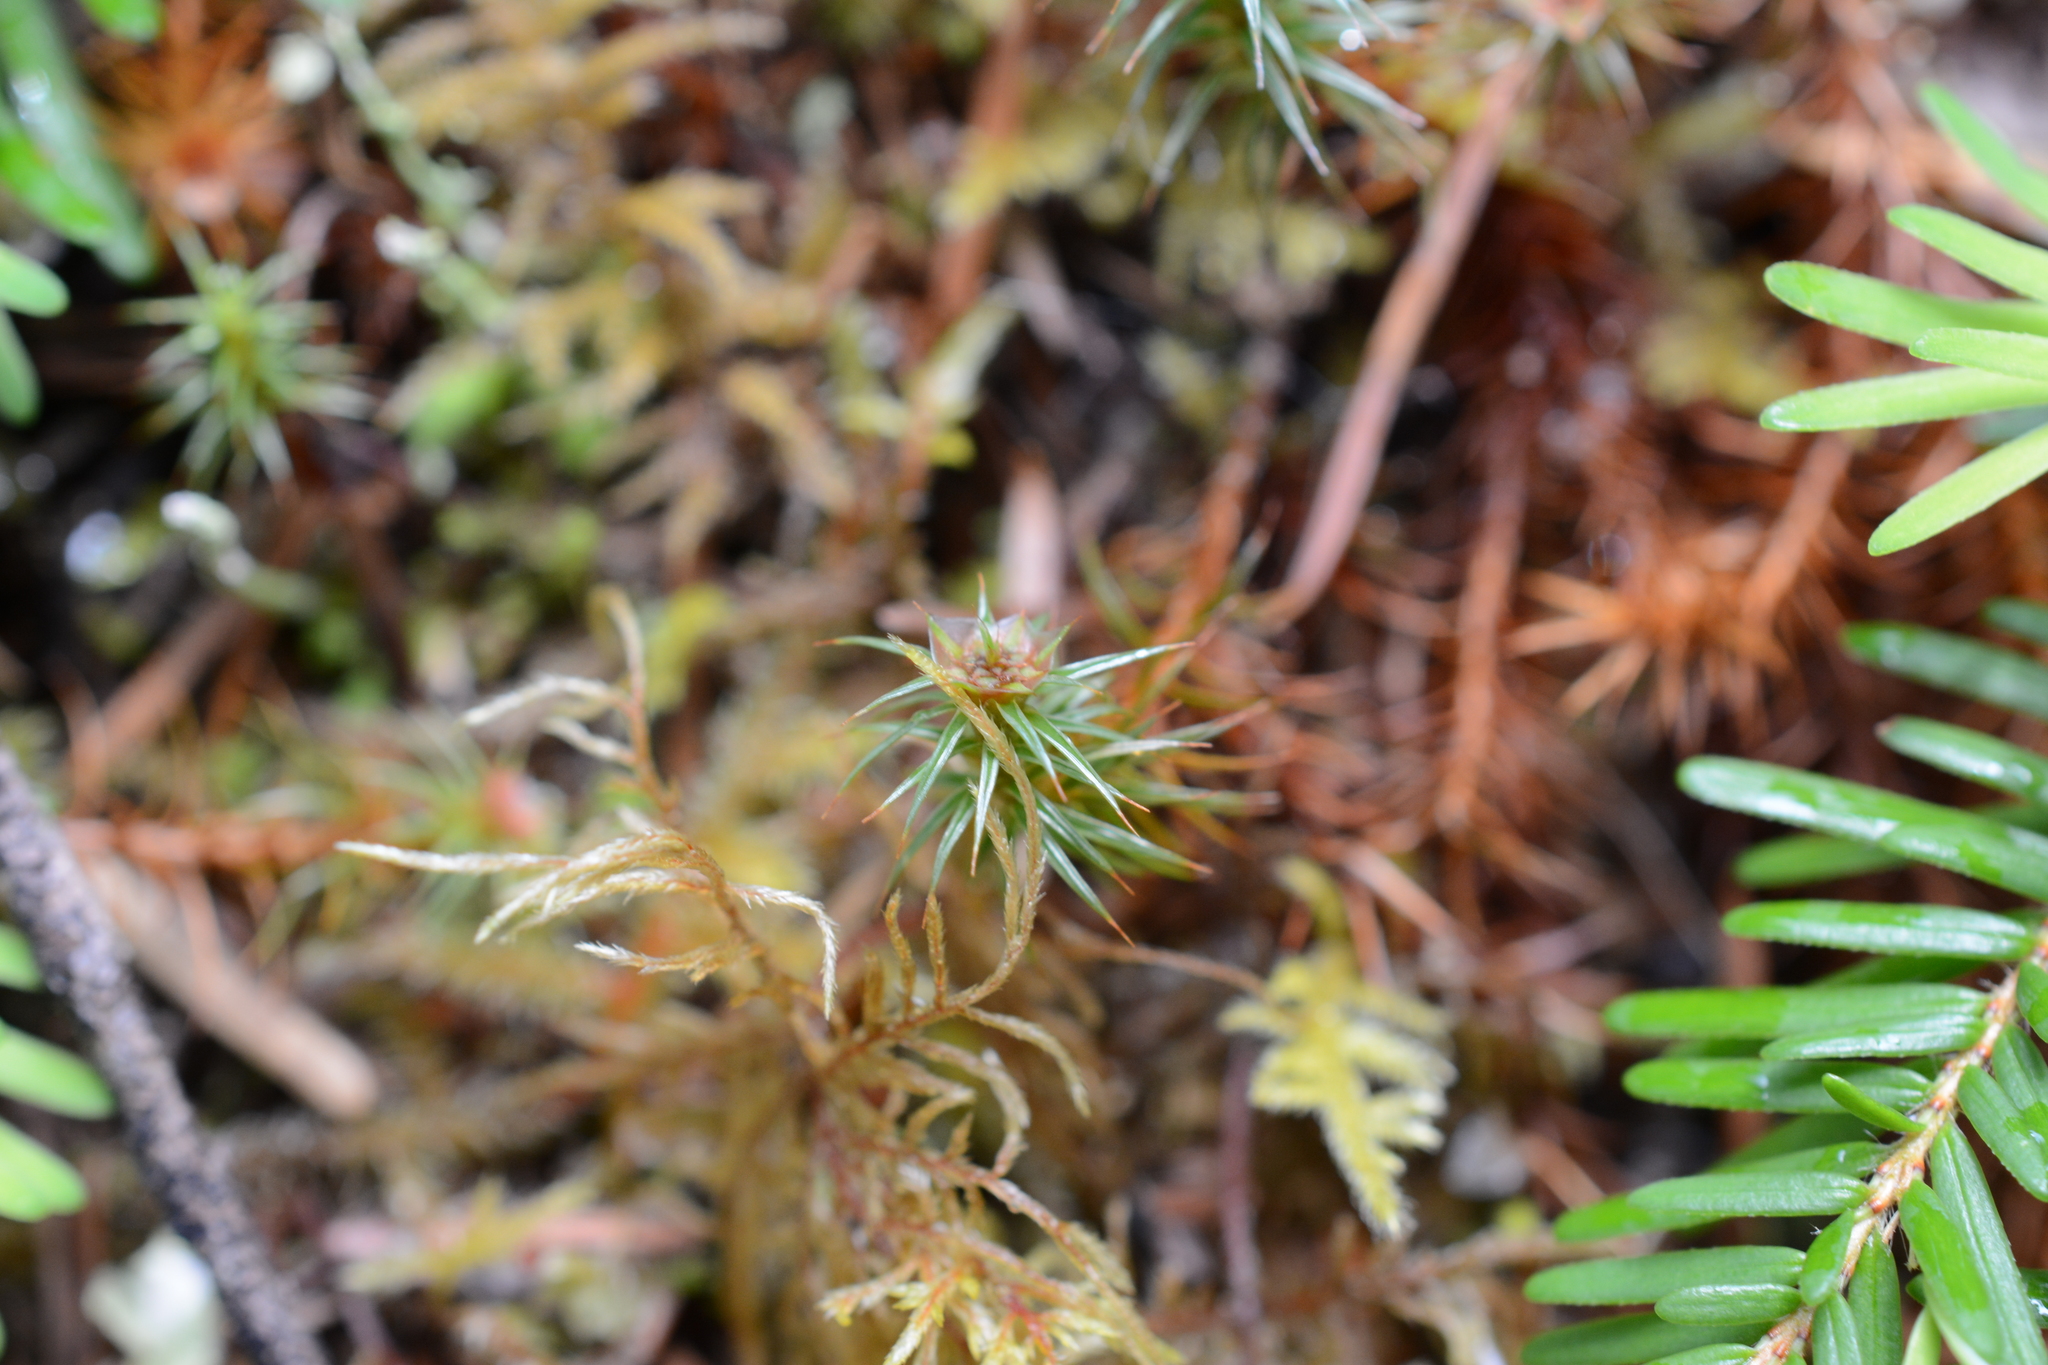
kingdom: Plantae
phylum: Bryophyta
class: Polytrichopsida
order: Polytrichales
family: Polytrichaceae
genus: Polytrichum
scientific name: Polytrichum juniperinum
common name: Juniper haircap moss
